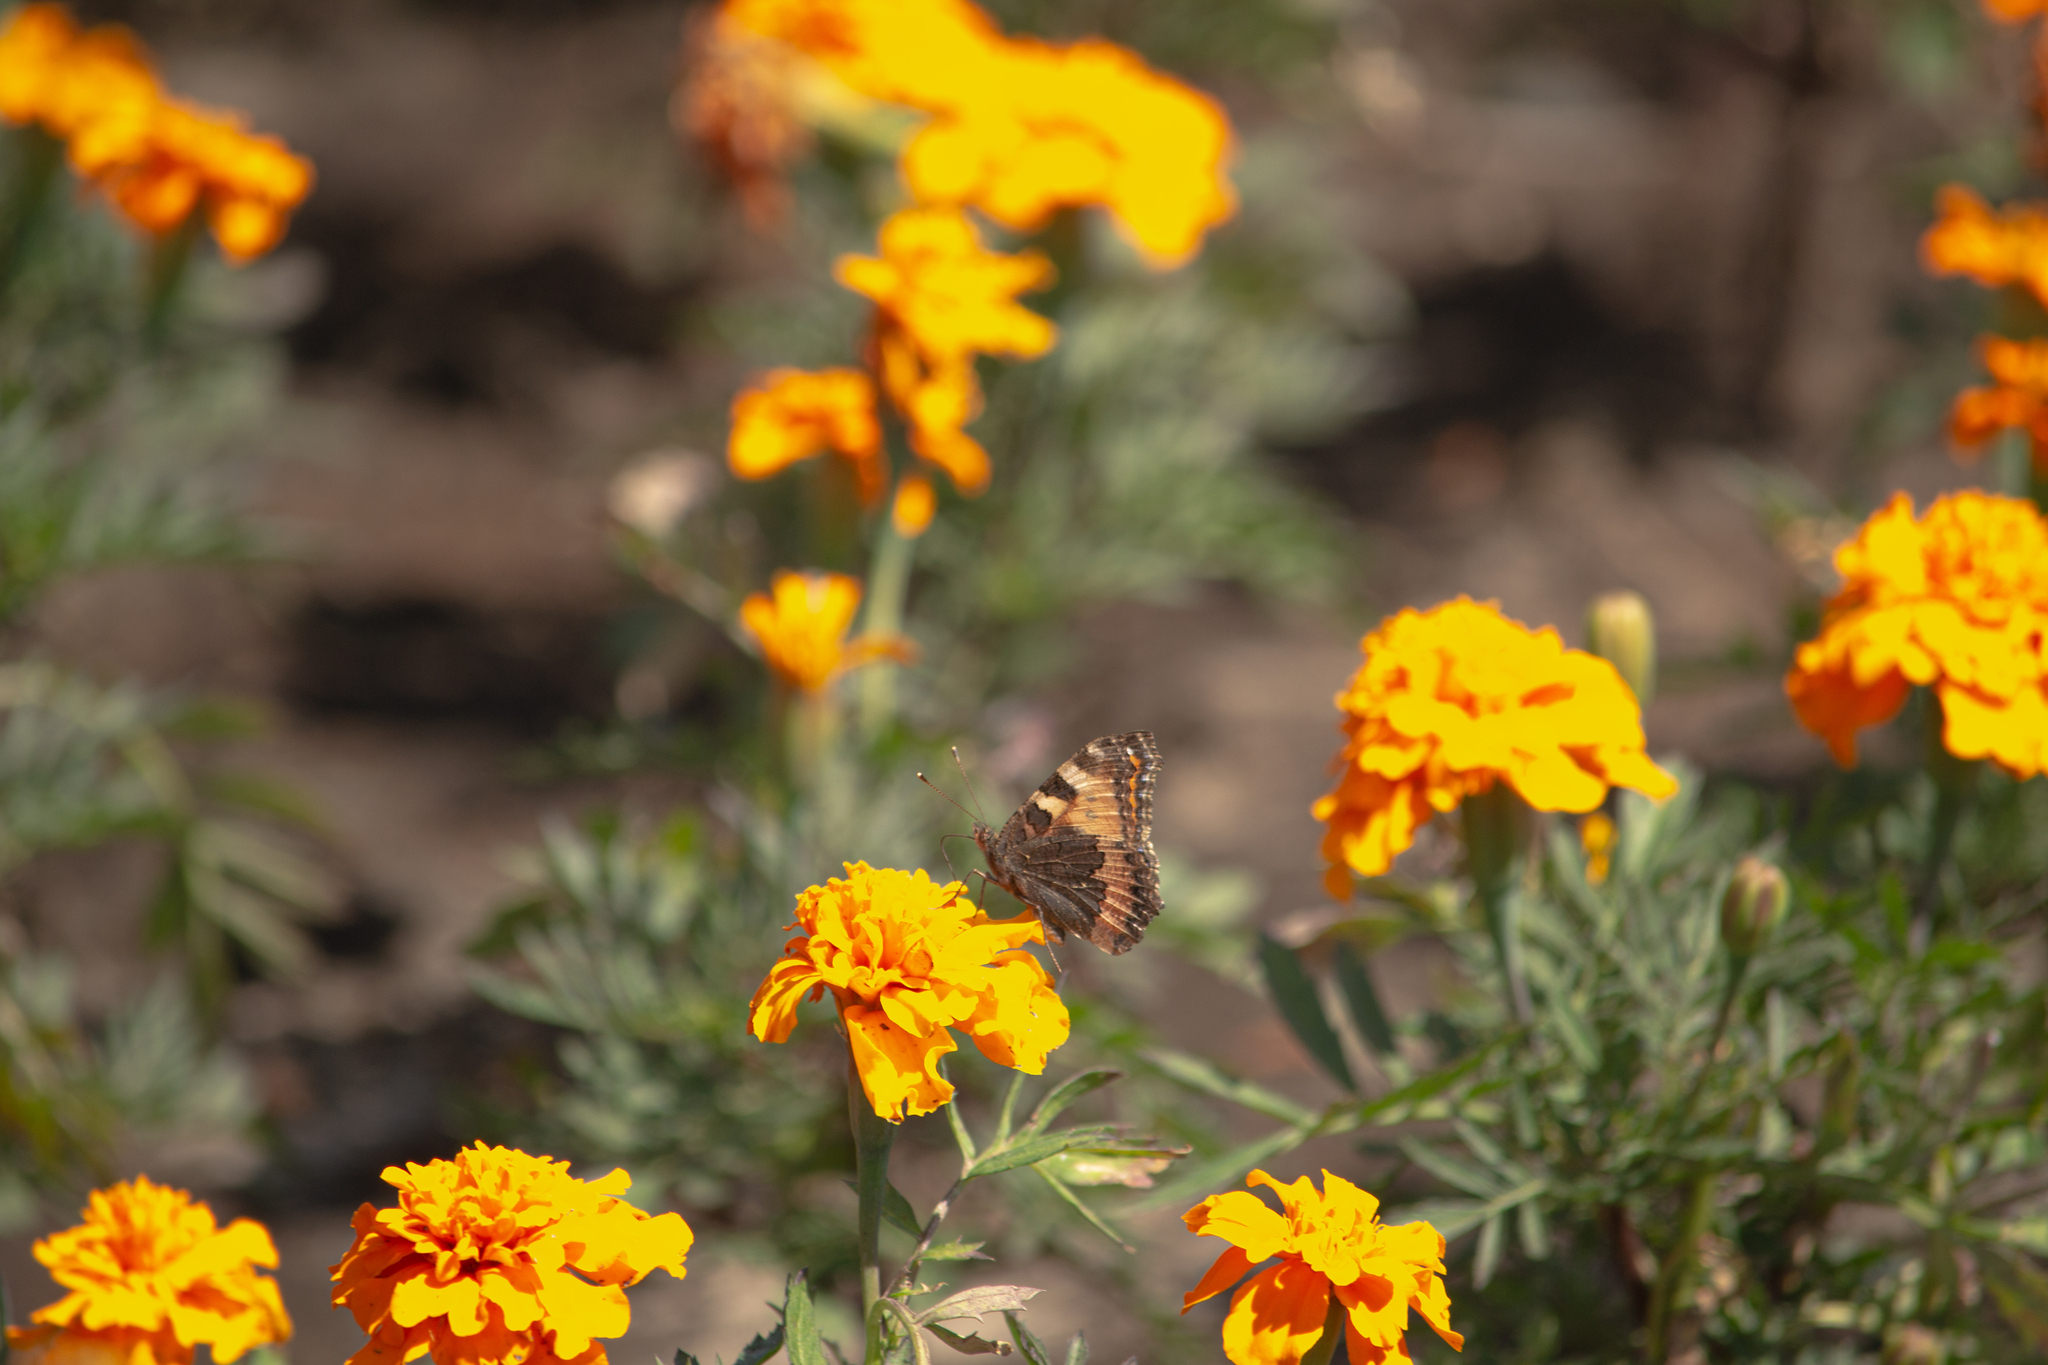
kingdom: Animalia
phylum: Arthropoda
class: Insecta
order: Lepidoptera
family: Nymphalidae
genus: Aglais
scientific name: Aglais urticae
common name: Small tortoiseshell
